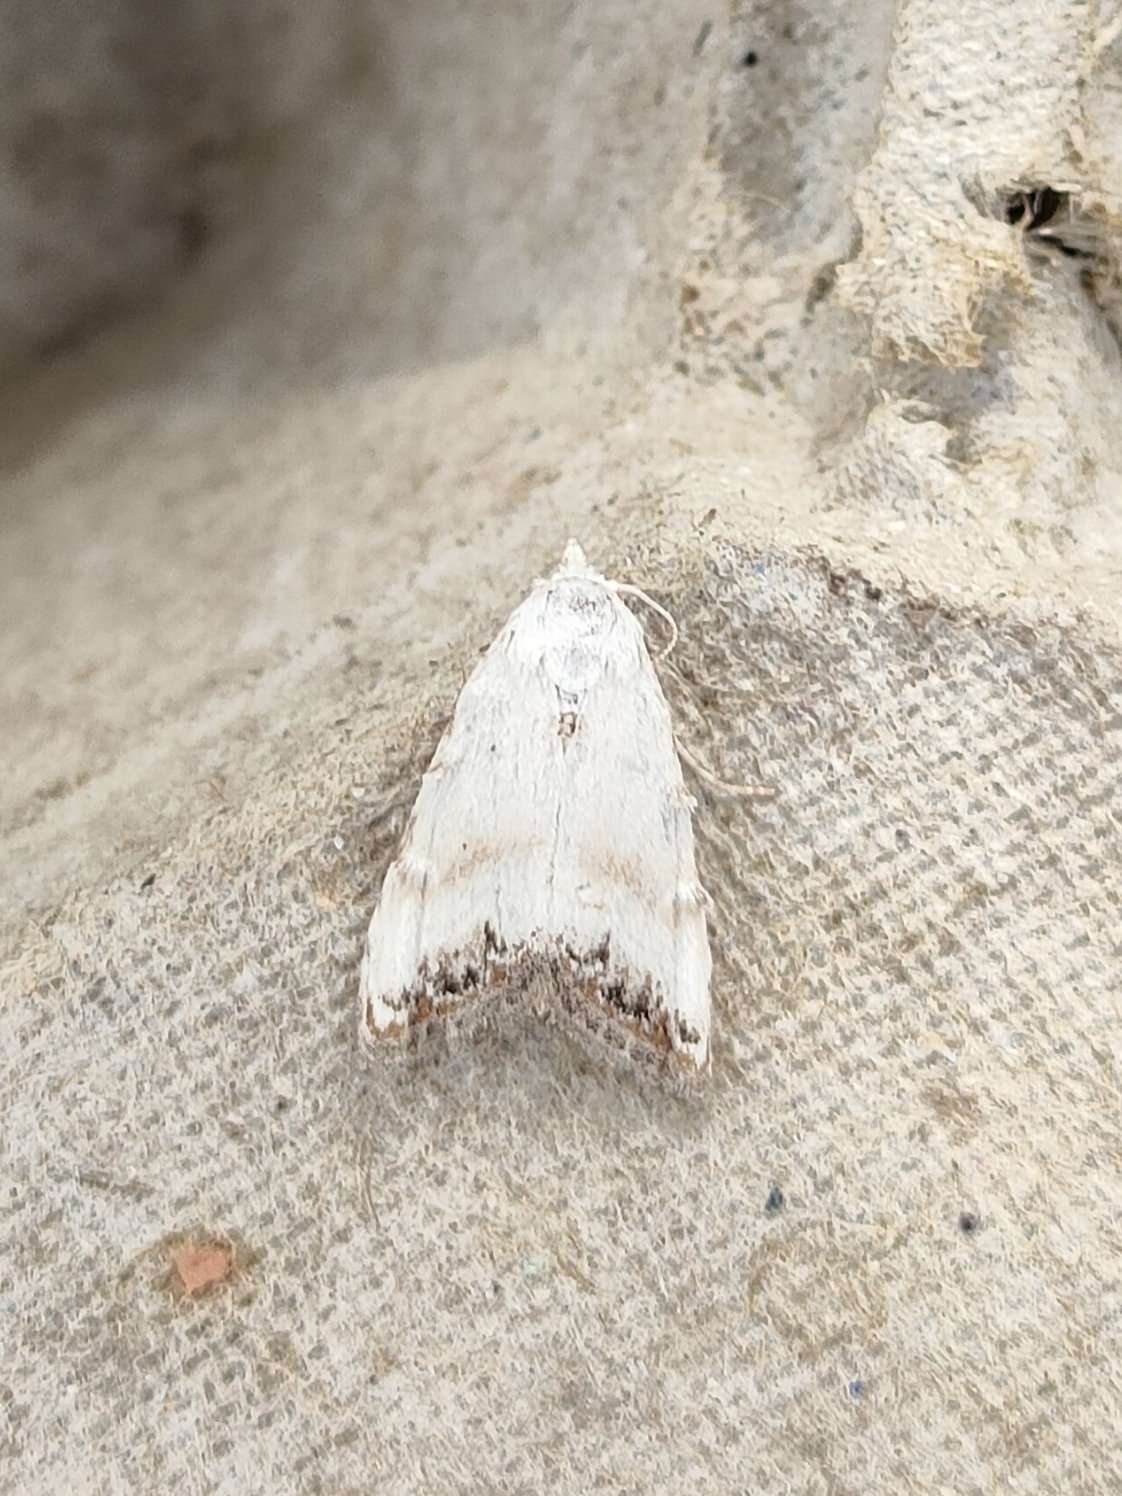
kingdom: Animalia
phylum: Arthropoda
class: Insecta
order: Lepidoptera
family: Nolidae
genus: Nola
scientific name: Nola infantula
